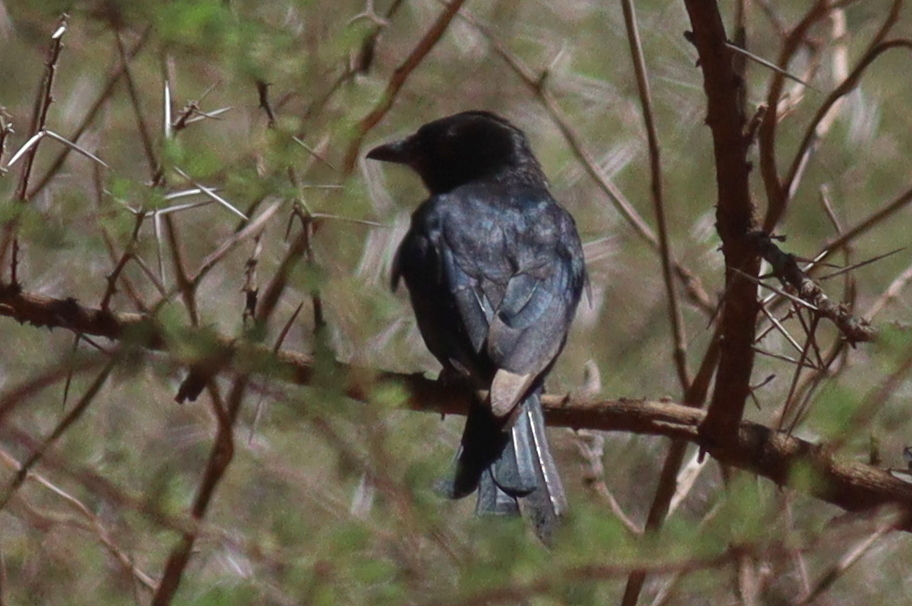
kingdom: Animalia
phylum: Chordata
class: Aves
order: Passeriformes
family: Dicruridae
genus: Dicrurus
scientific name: Dicrurus adsimilis
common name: Fork-tailed drongo
